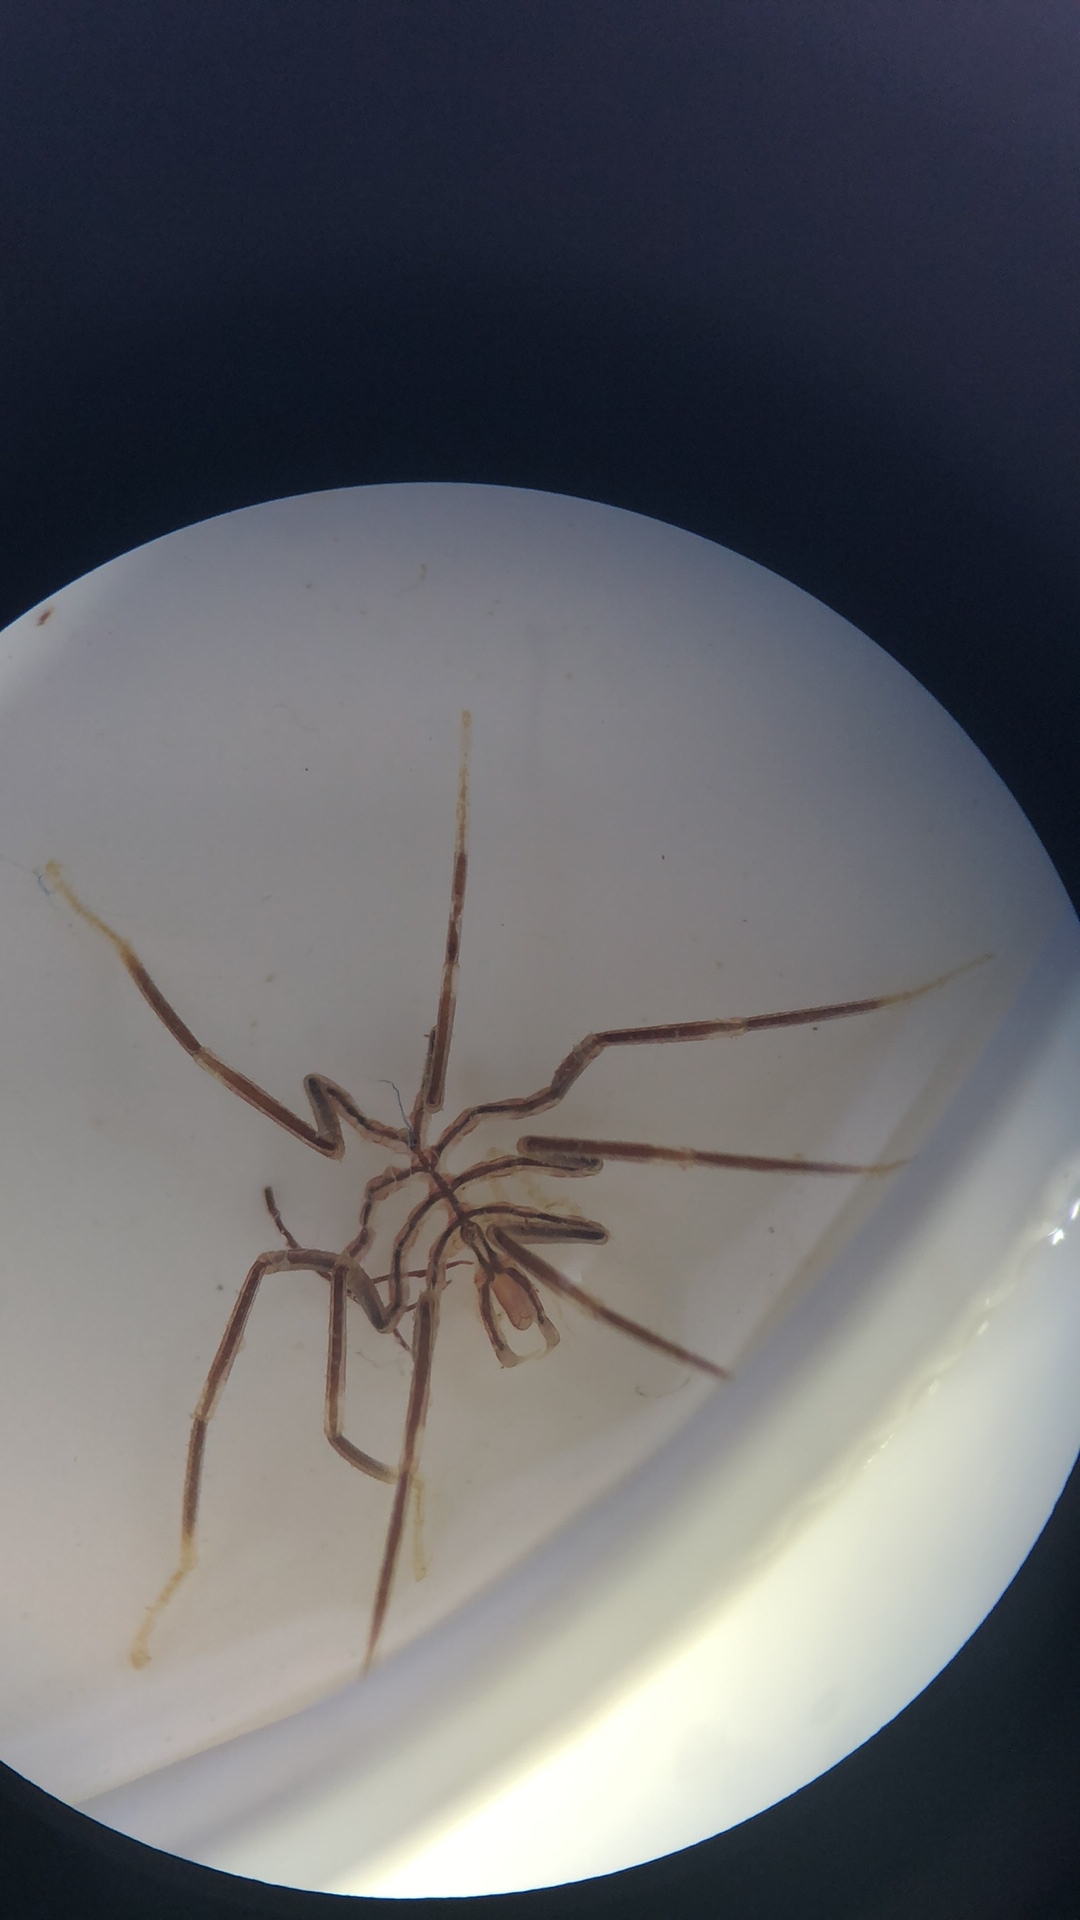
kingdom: Animalia
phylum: Arthropoda
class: Pycnogonida
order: Pantopoda
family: Nymphonidae
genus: Nymphon
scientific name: Nymphon gracile
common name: Gangly lancer
